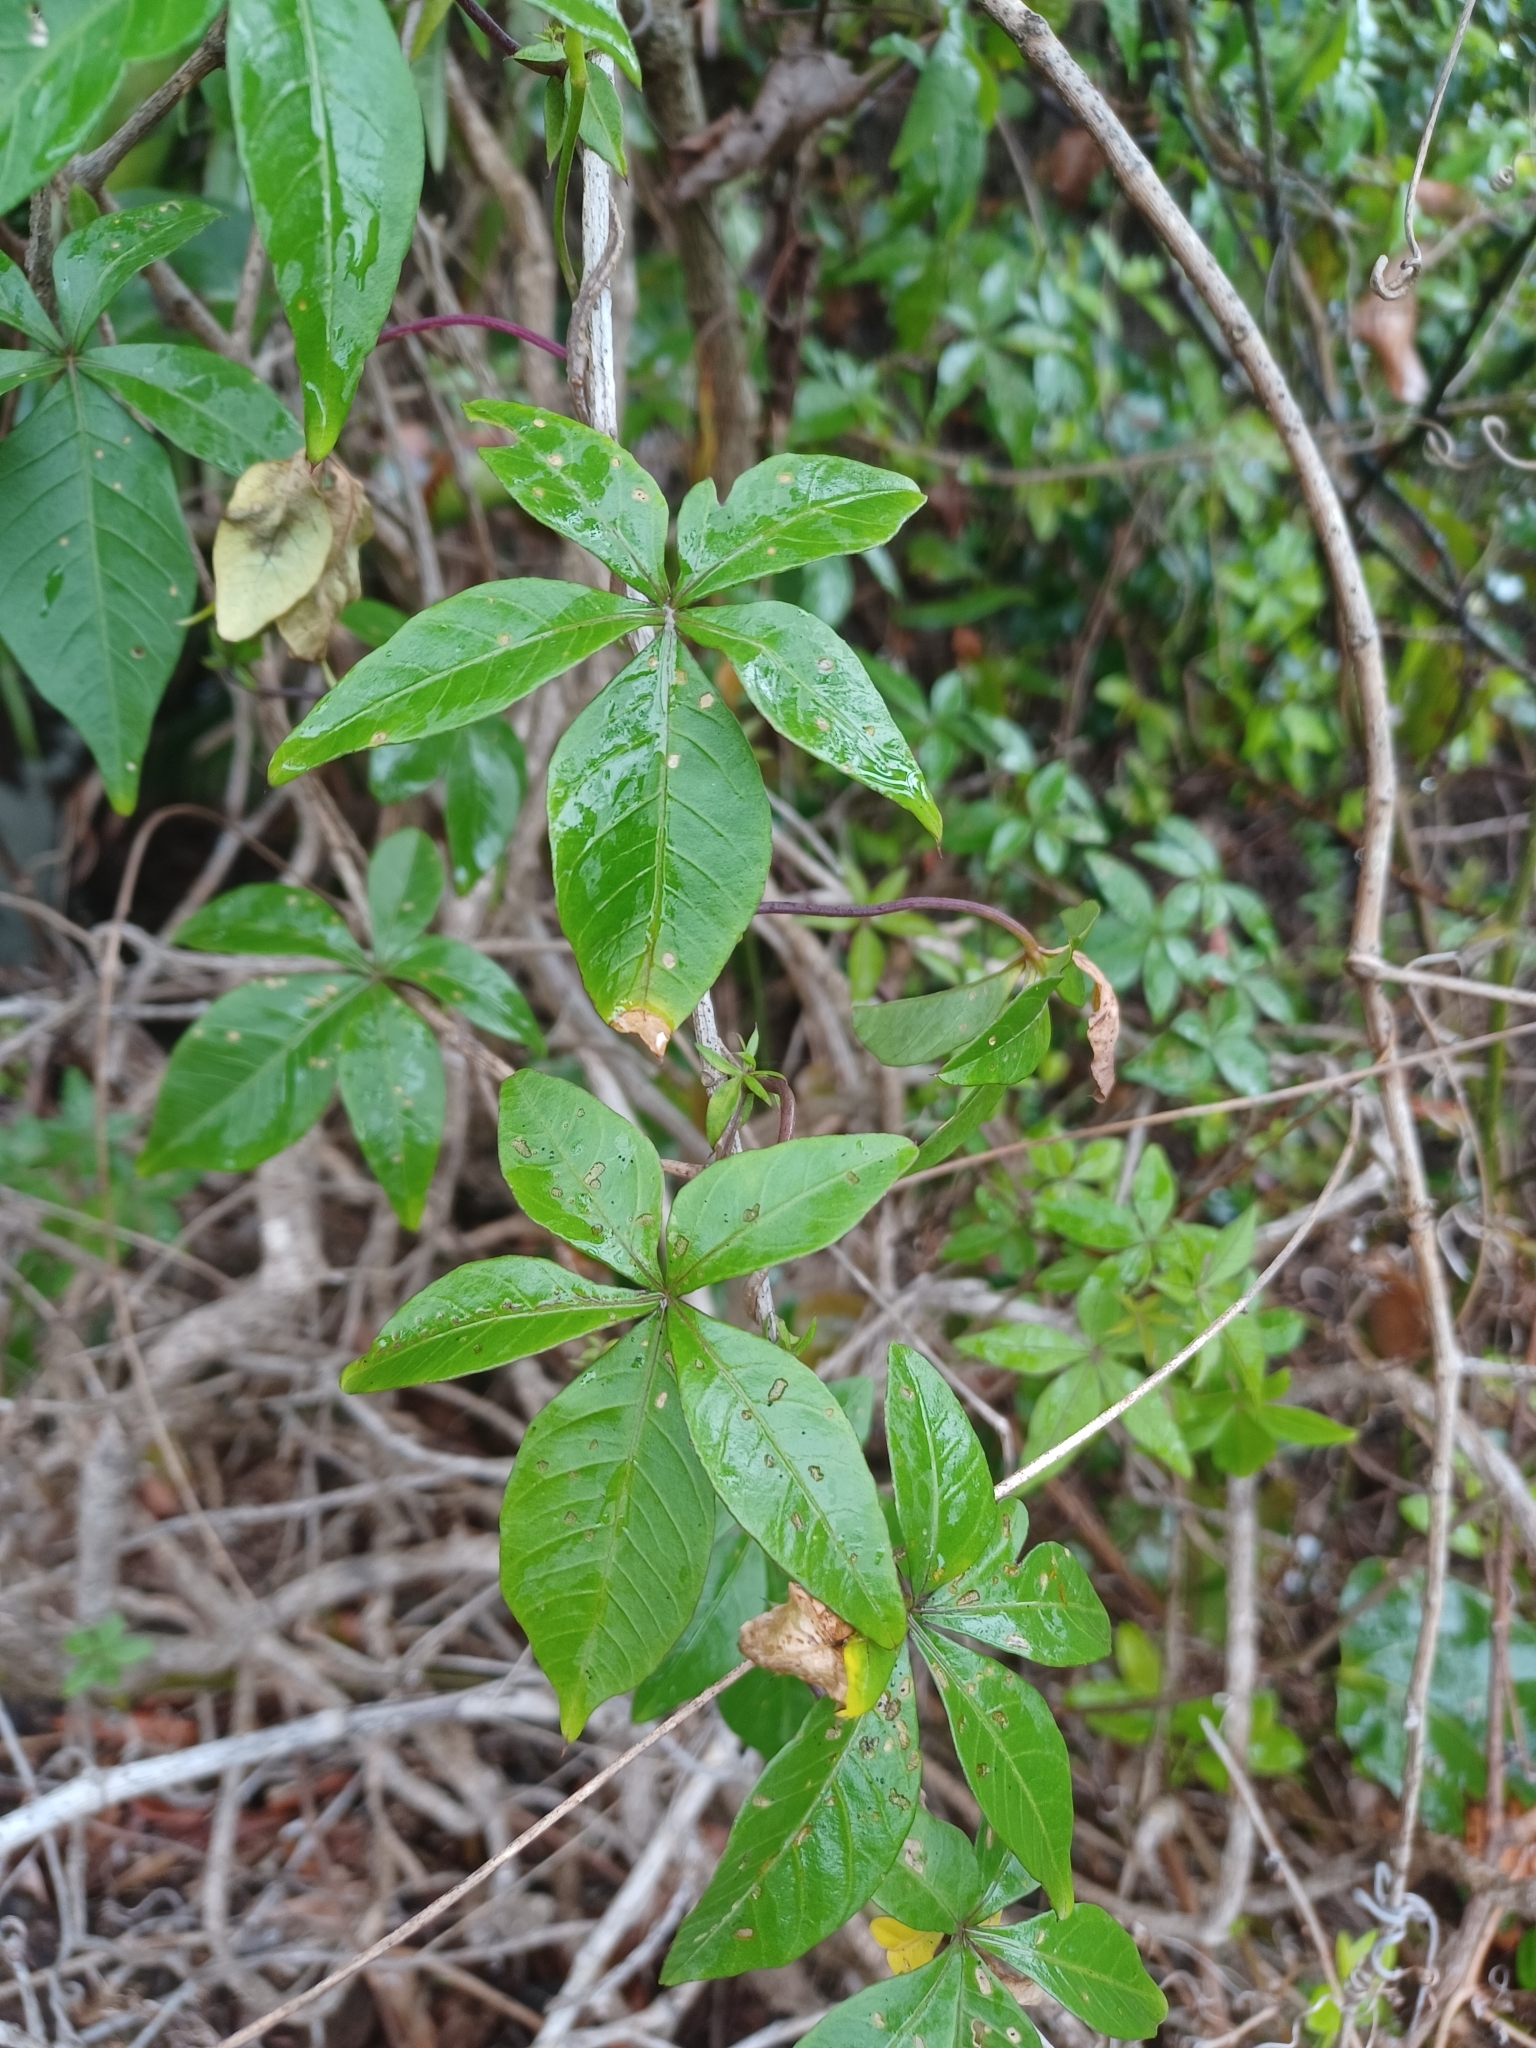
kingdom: Plantae
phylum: Tracheophyta
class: Magnoliopsida
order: Solanales
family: Convolvulaceae
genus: Ipomoea
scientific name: Ipomoea cairica
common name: Mile a minute vine
